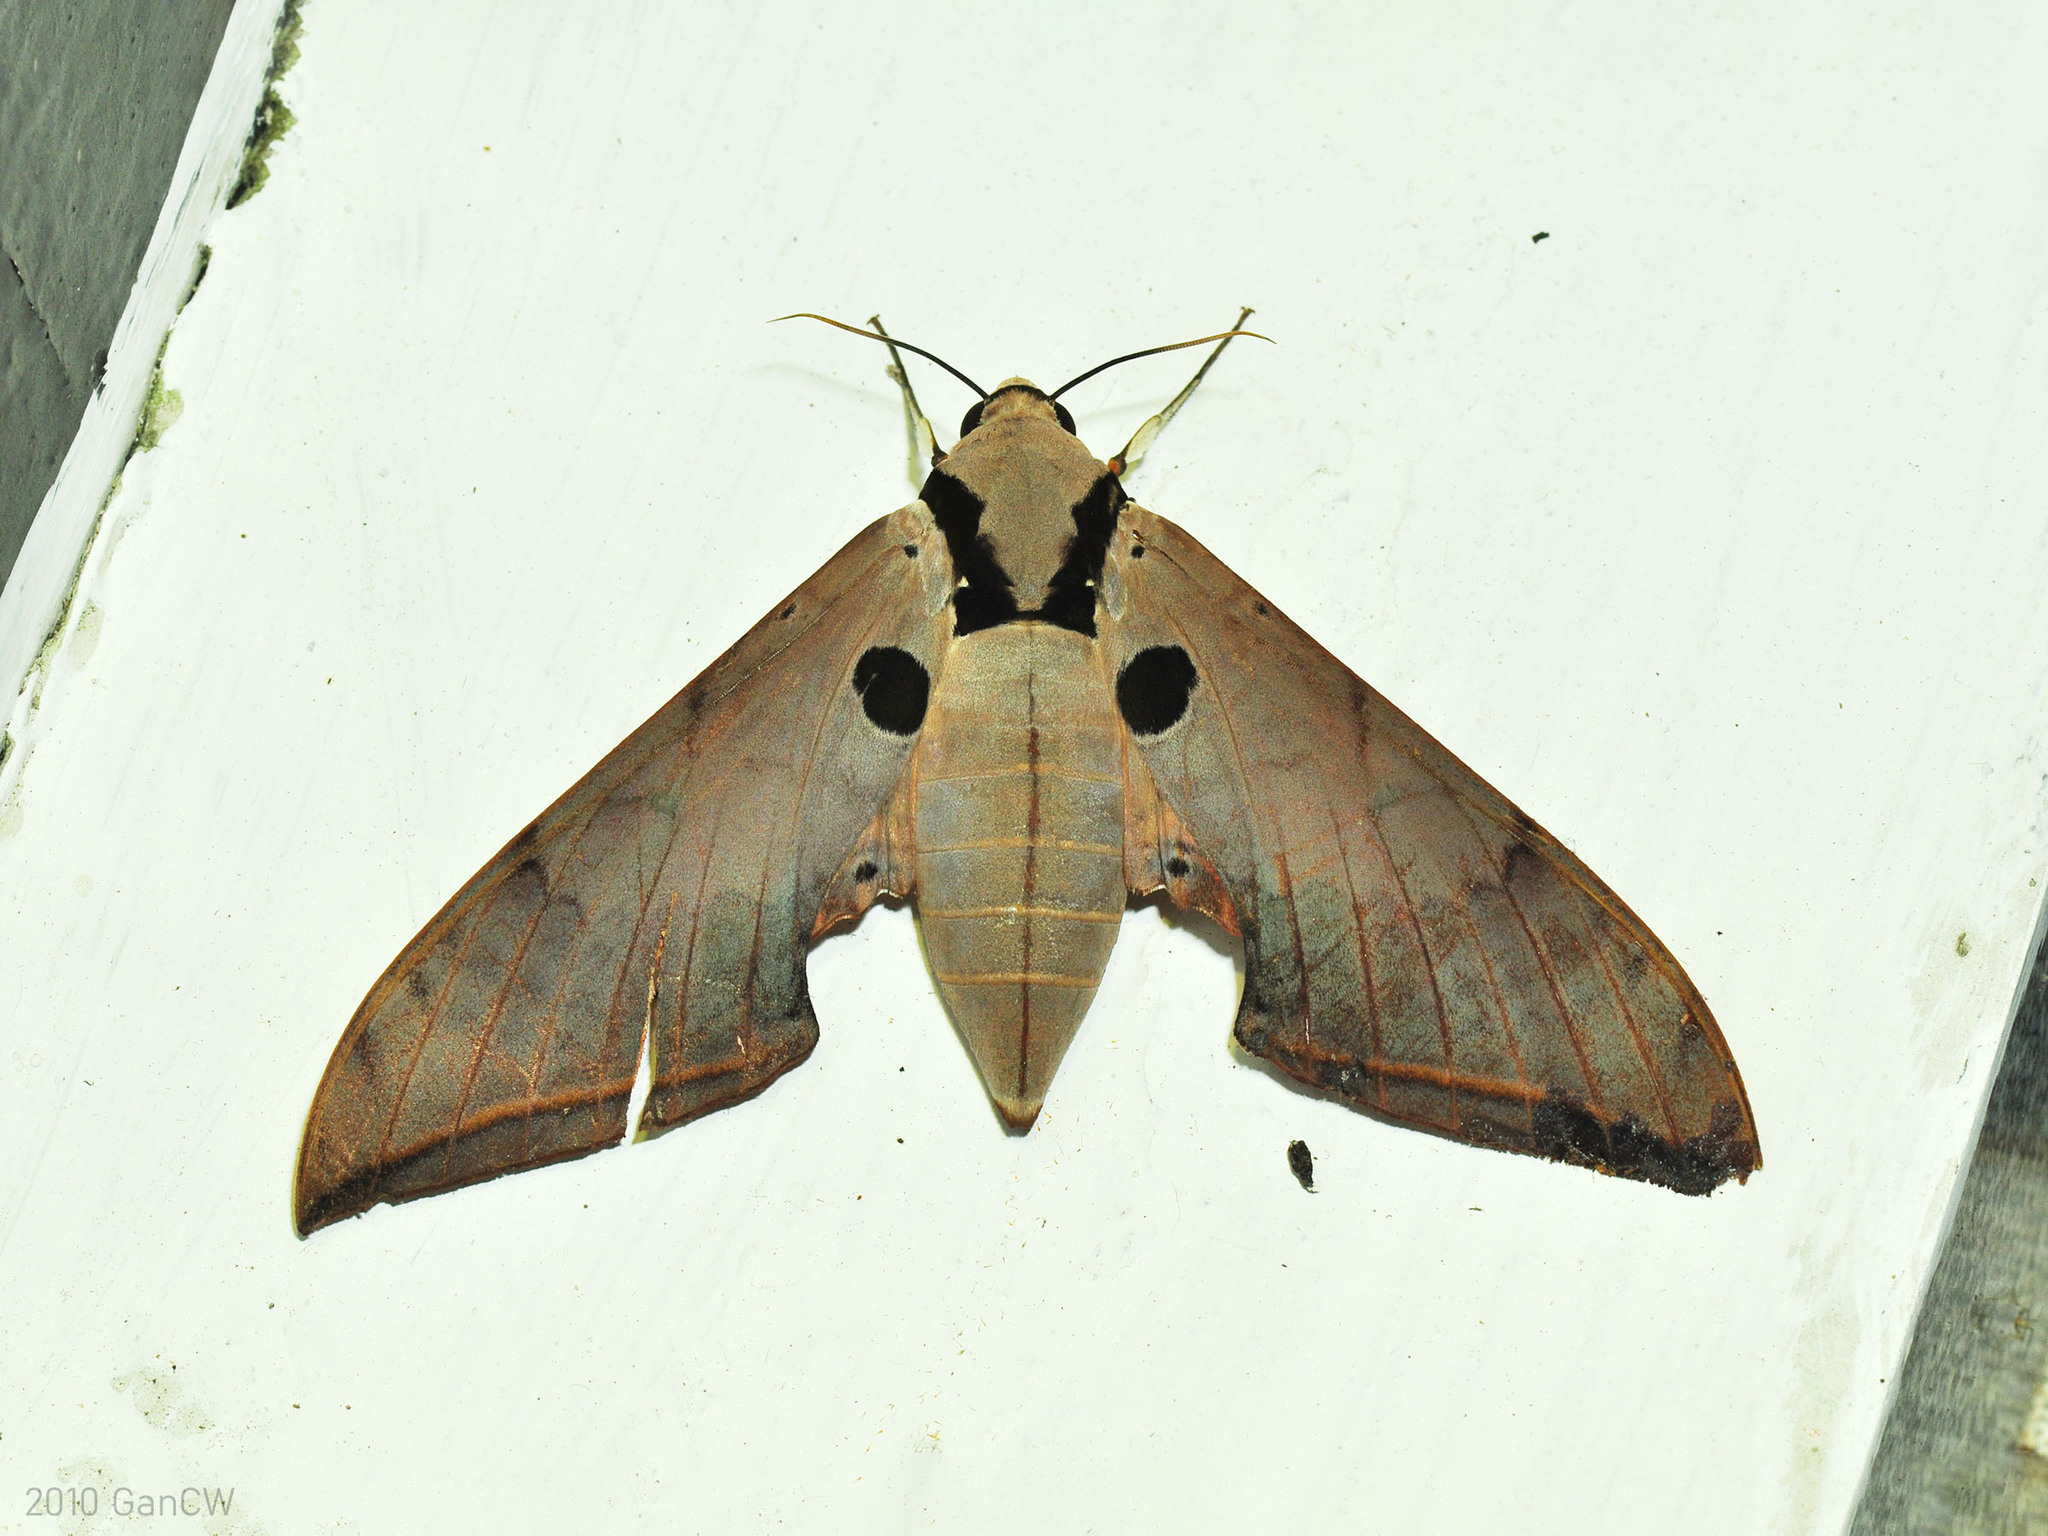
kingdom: Animalia
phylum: Arthropoda
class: Insecta
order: Lepidoptera
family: Sphingidae
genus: Ambulyx
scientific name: Ambulyx obliterata
